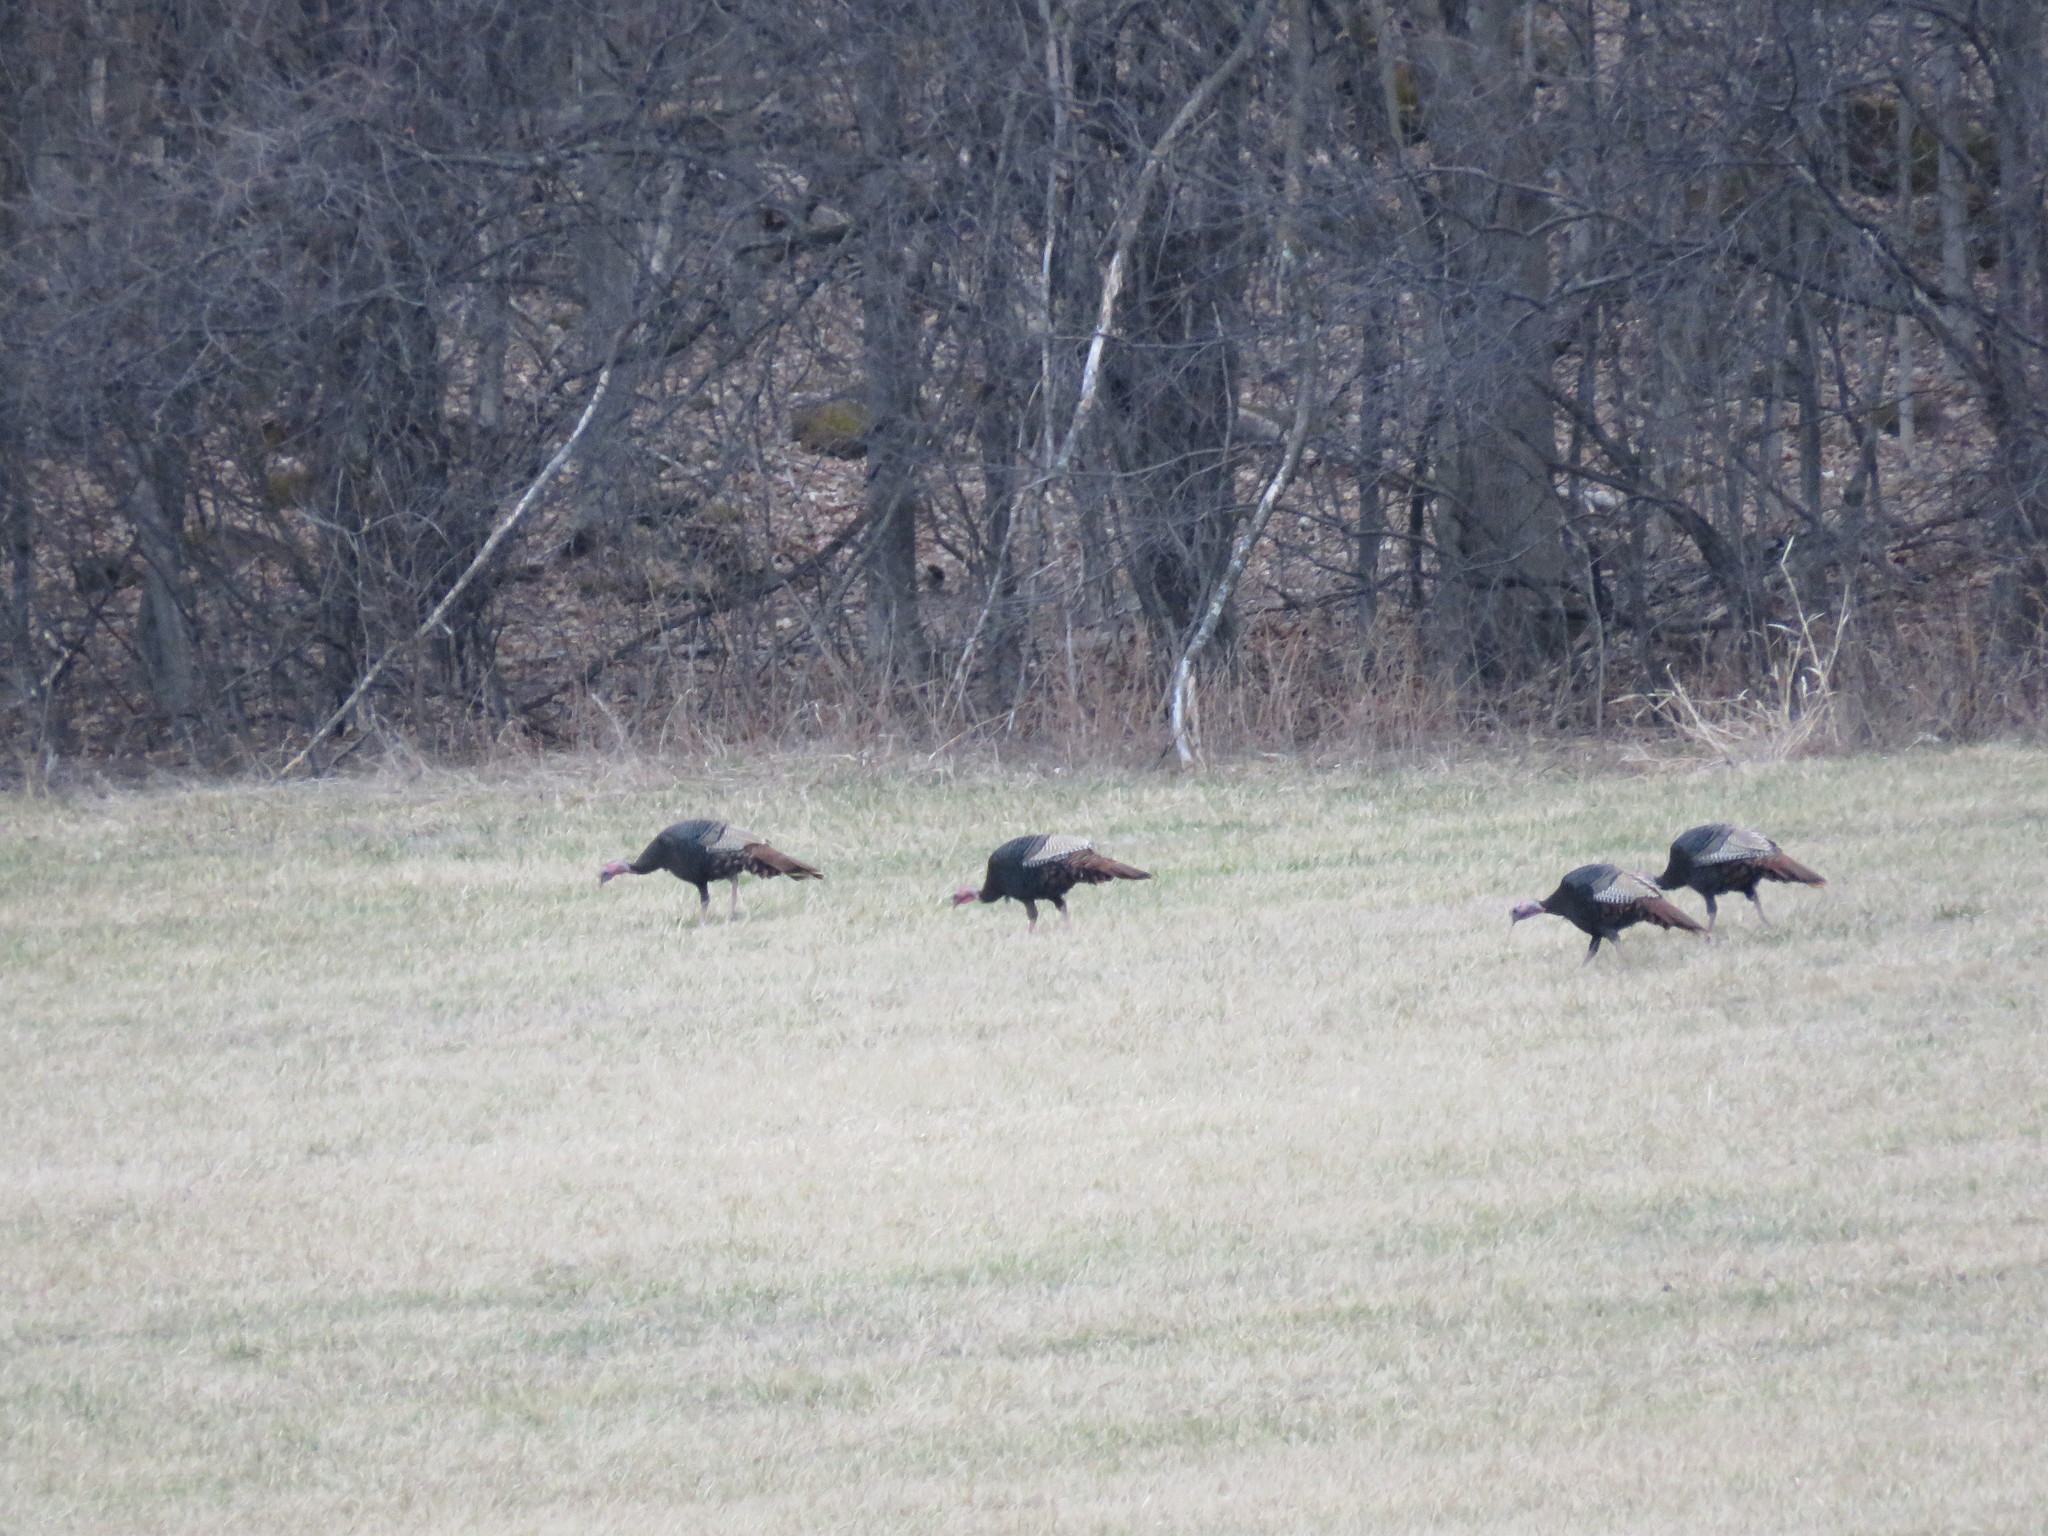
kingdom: Animalia
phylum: Chordata
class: Aves
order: Galliformes
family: Phasianidae
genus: Meleagris
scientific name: Meleagris gallopavo
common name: Wild turkey
